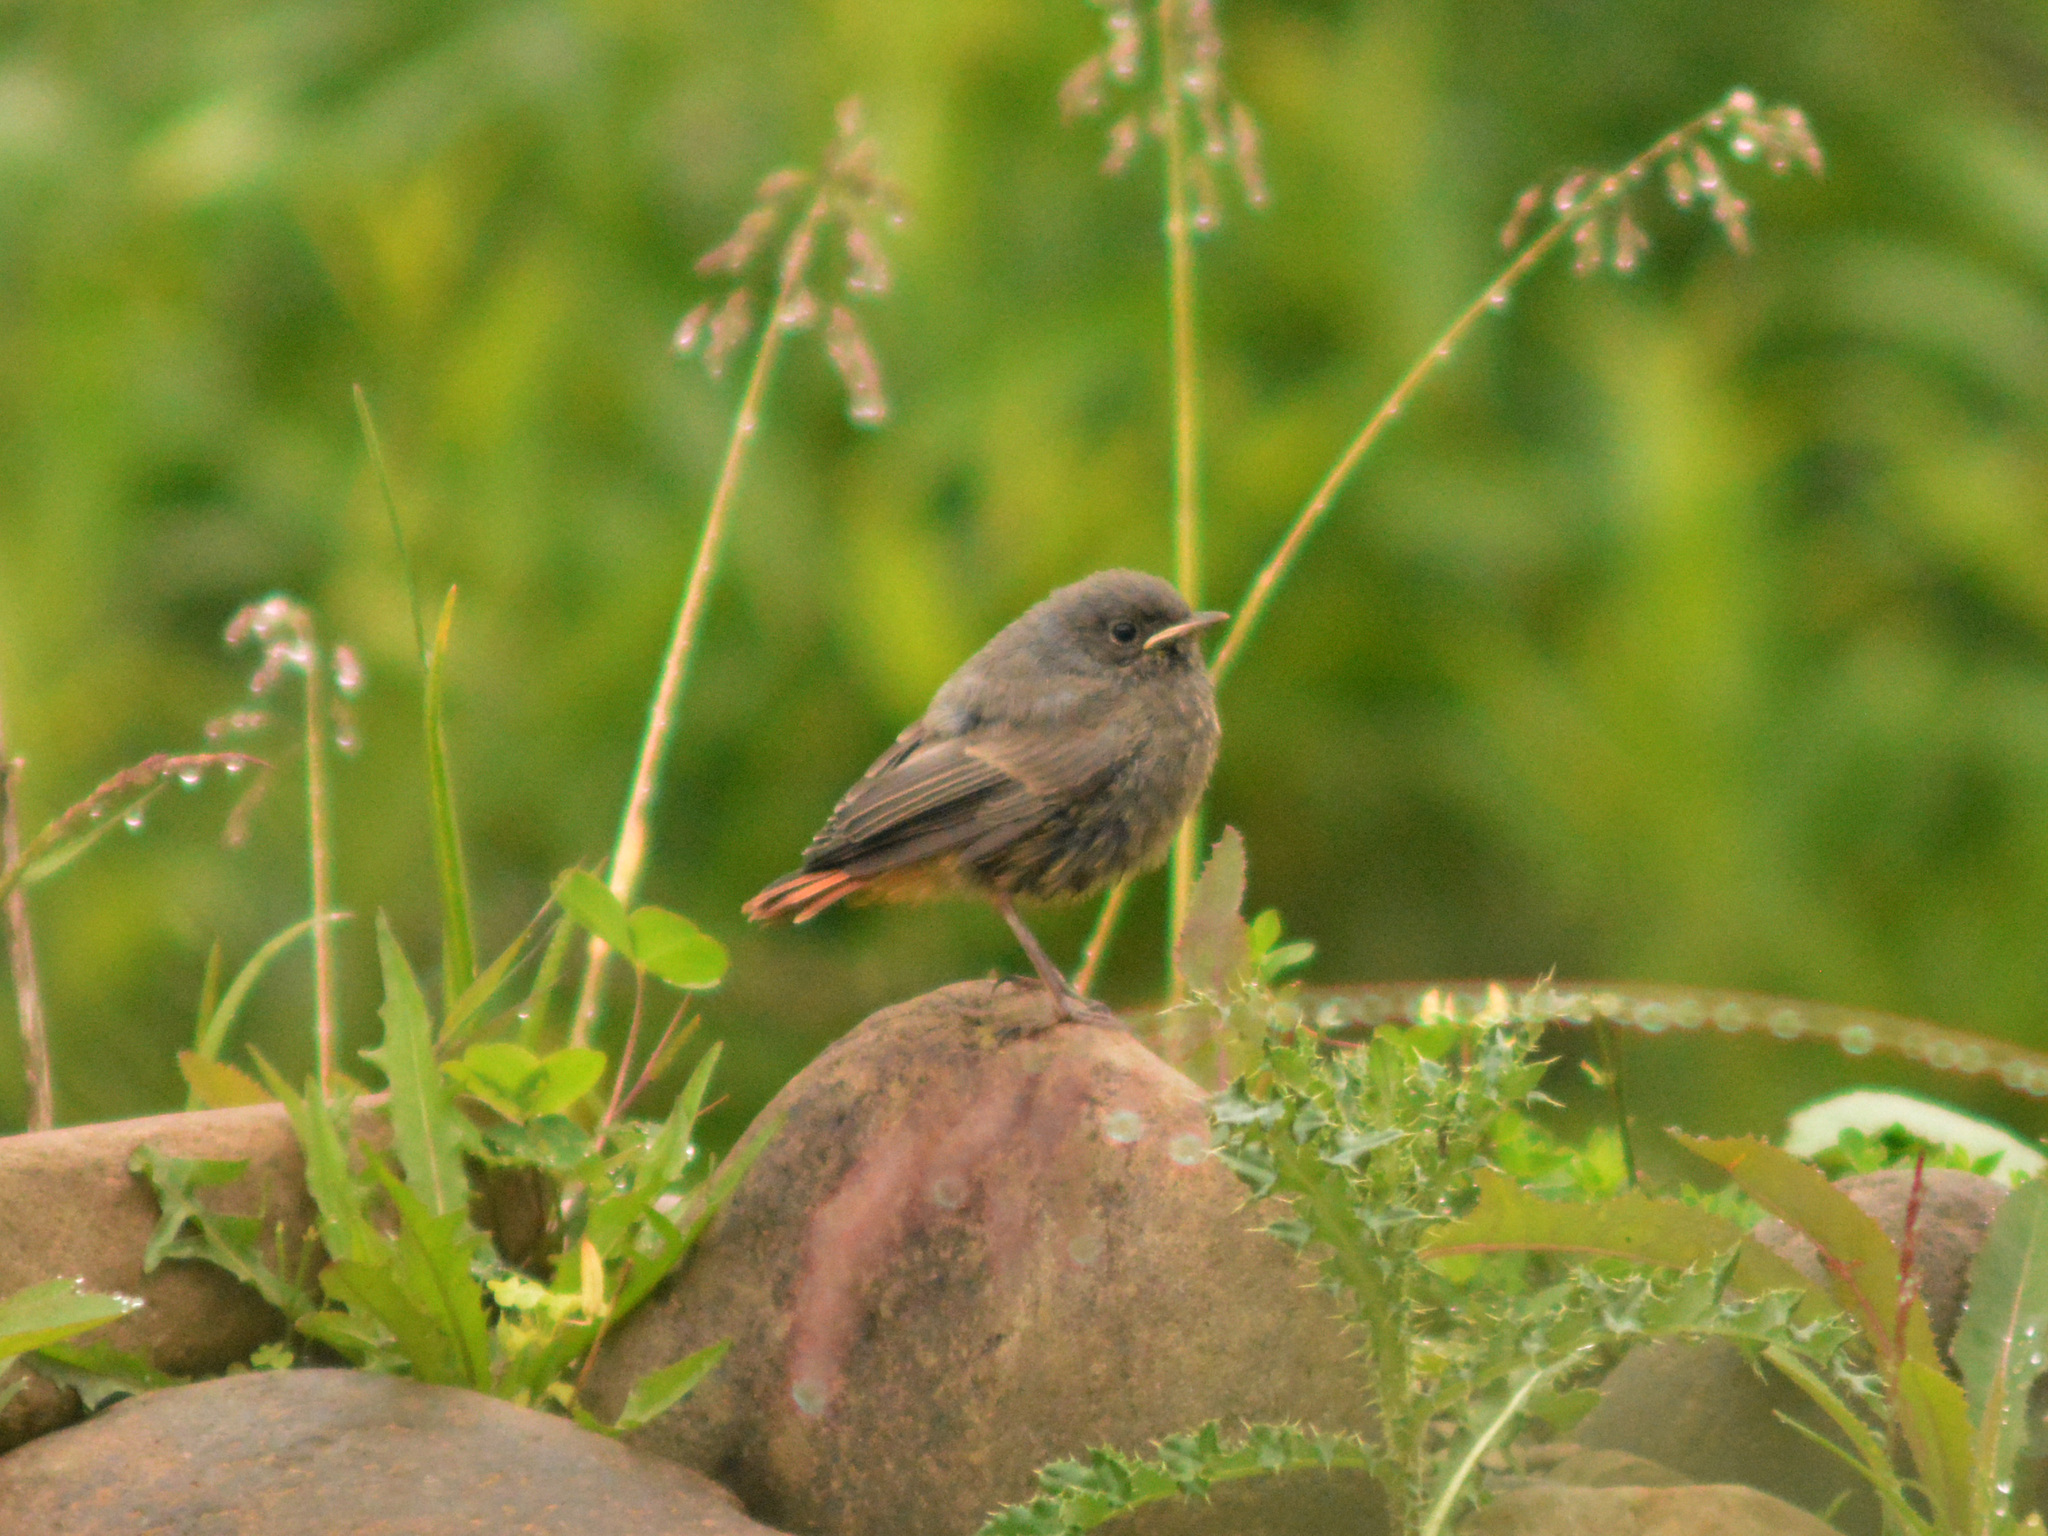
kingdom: Animalia
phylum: Chordata
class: Aves
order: Passeriformes
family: Muscicapidae
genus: Phoenicurus
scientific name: Phoenicurus ochruros
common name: Black redstart
